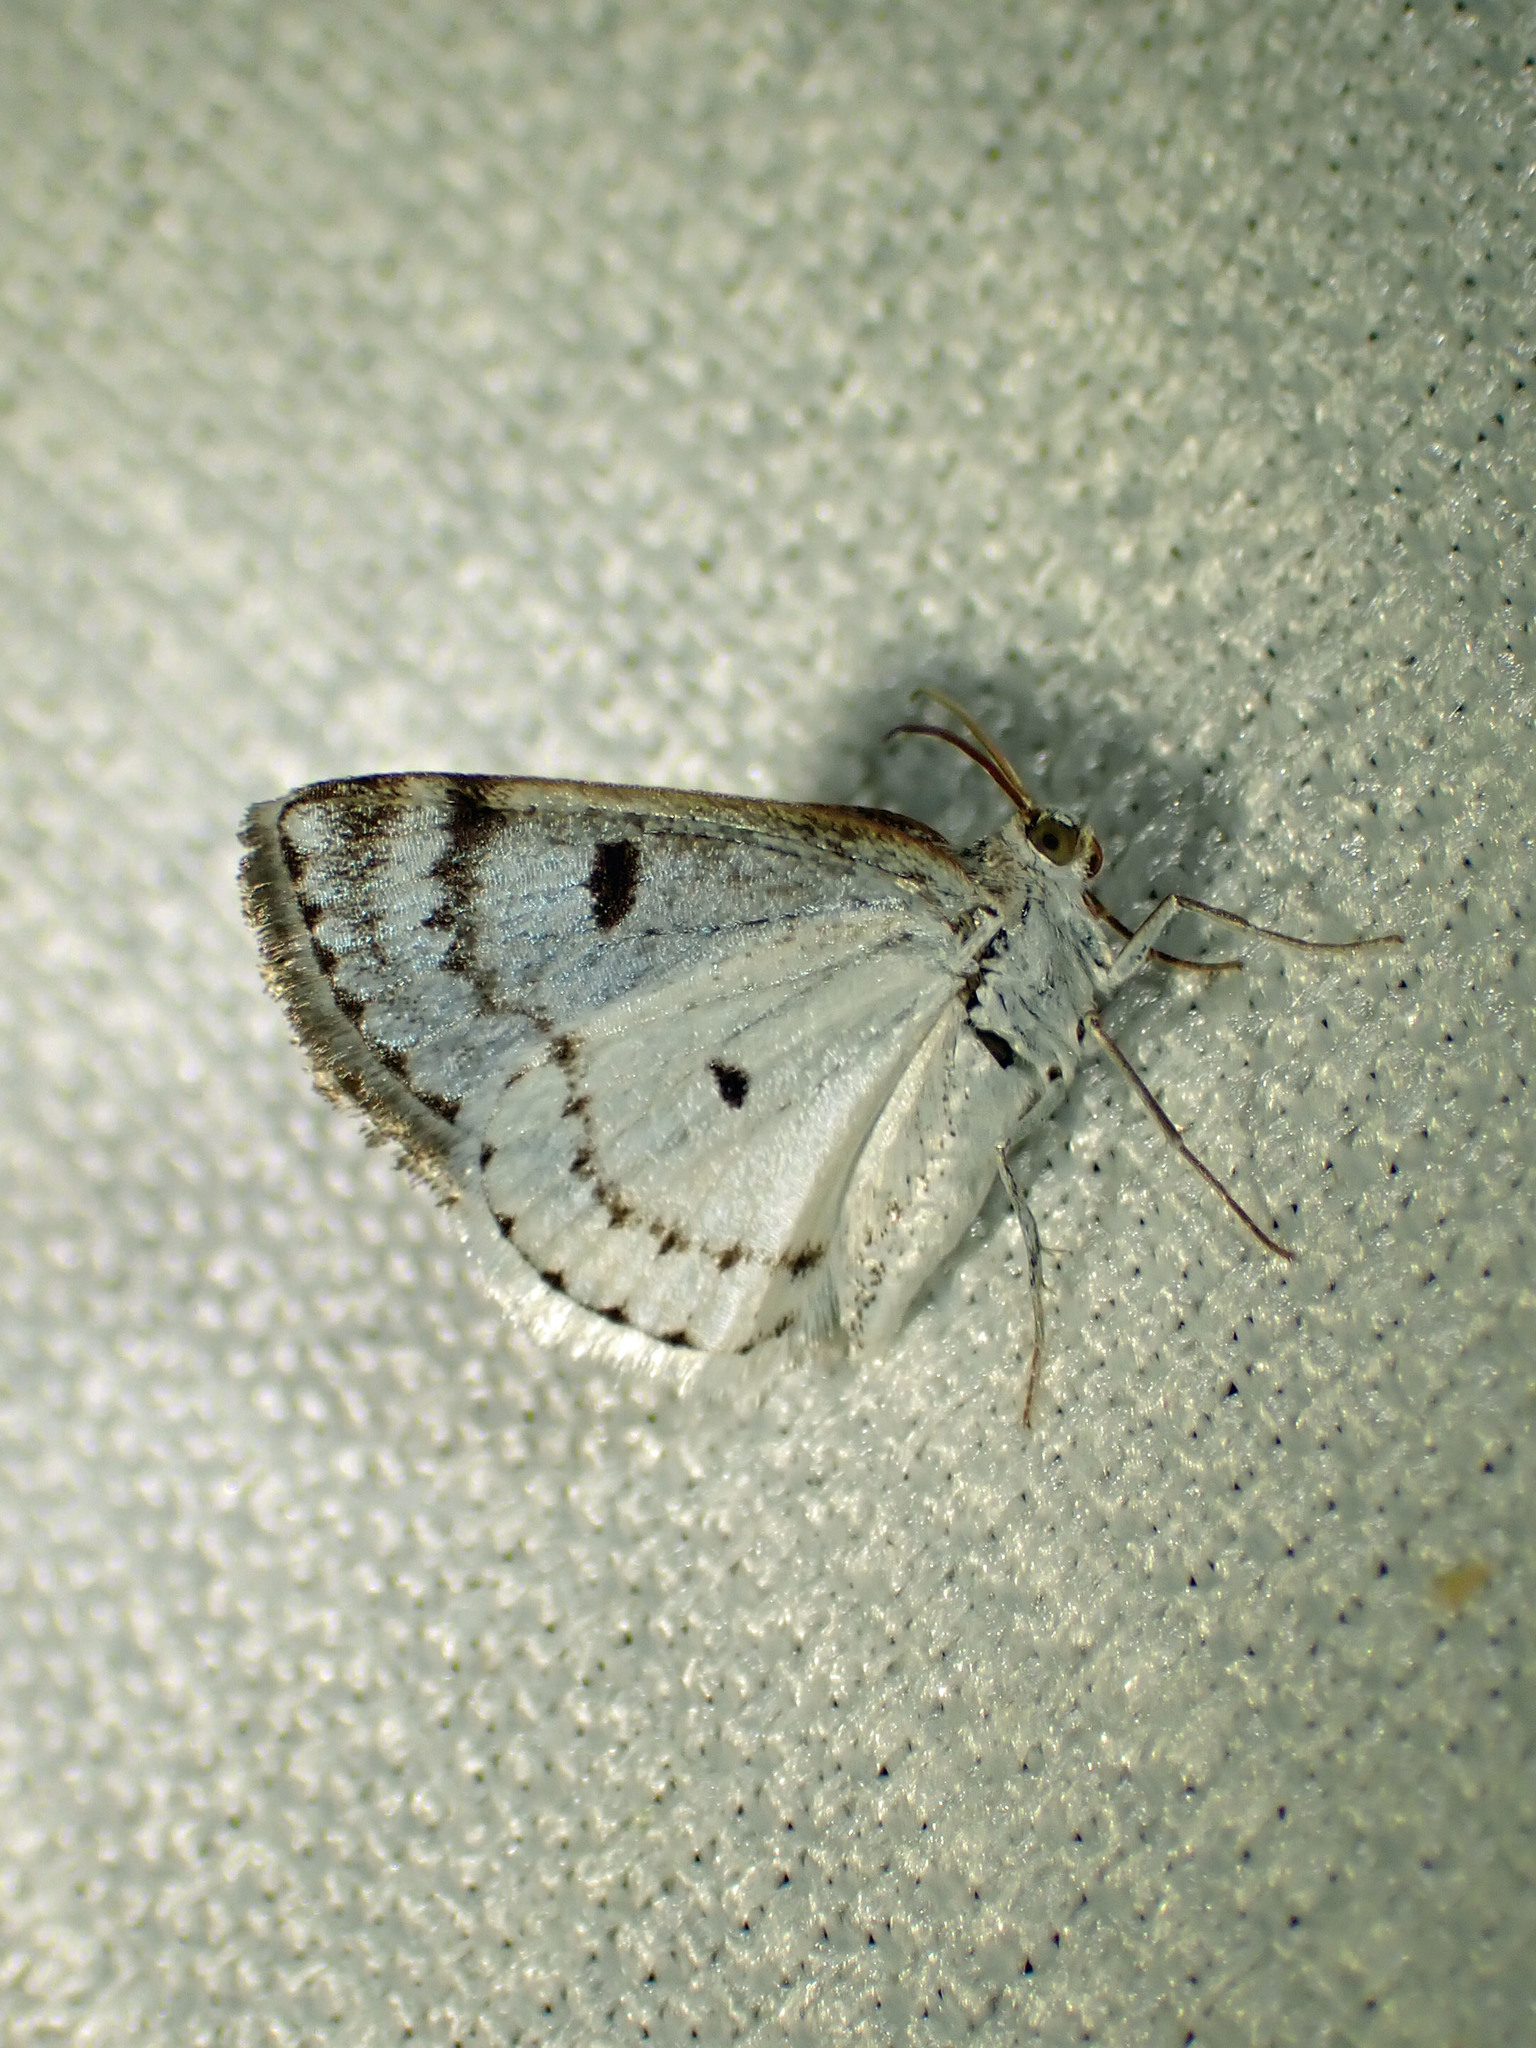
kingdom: Animalia
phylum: Arthropoda
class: Insecta
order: Lepidoptera
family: Geometridae
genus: Lomographa
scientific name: Lomographa semiclarata
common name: Bluish spring moth
